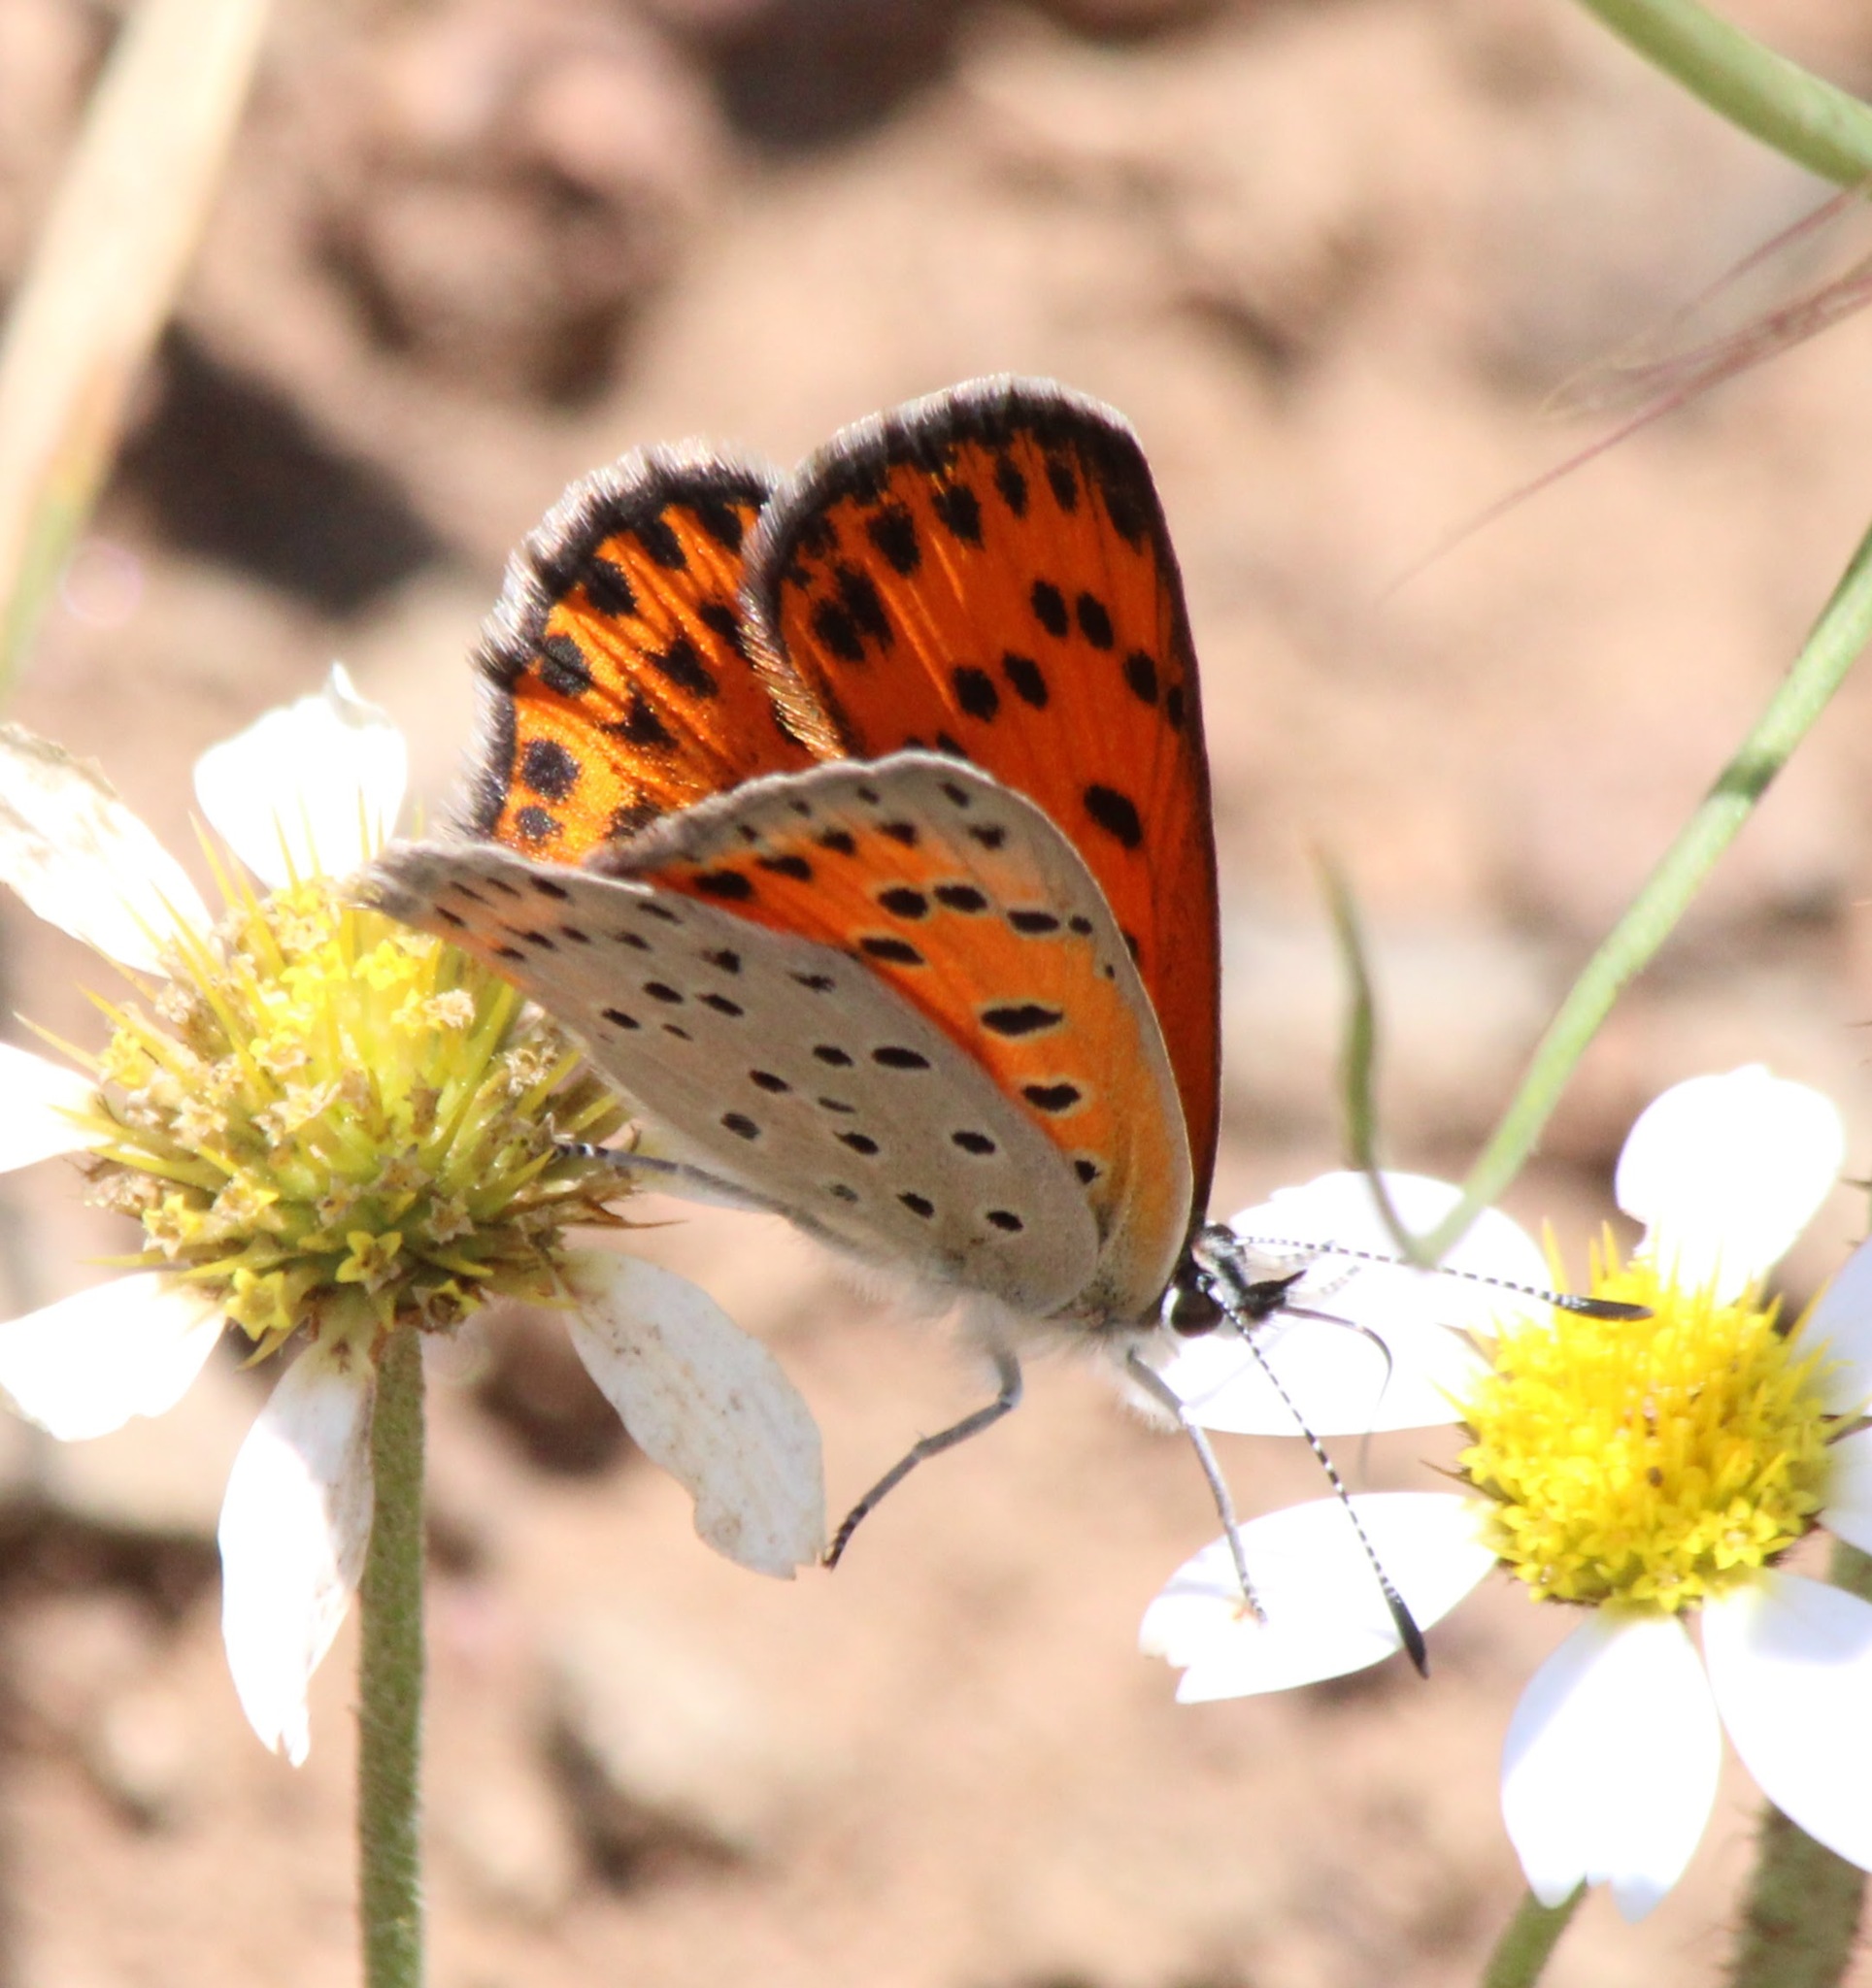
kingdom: Animalia
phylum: Arthropoda
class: Insecta
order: Lepidoptera
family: Lycaenidae
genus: Sarthusia
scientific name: Sarthusia sarthus
